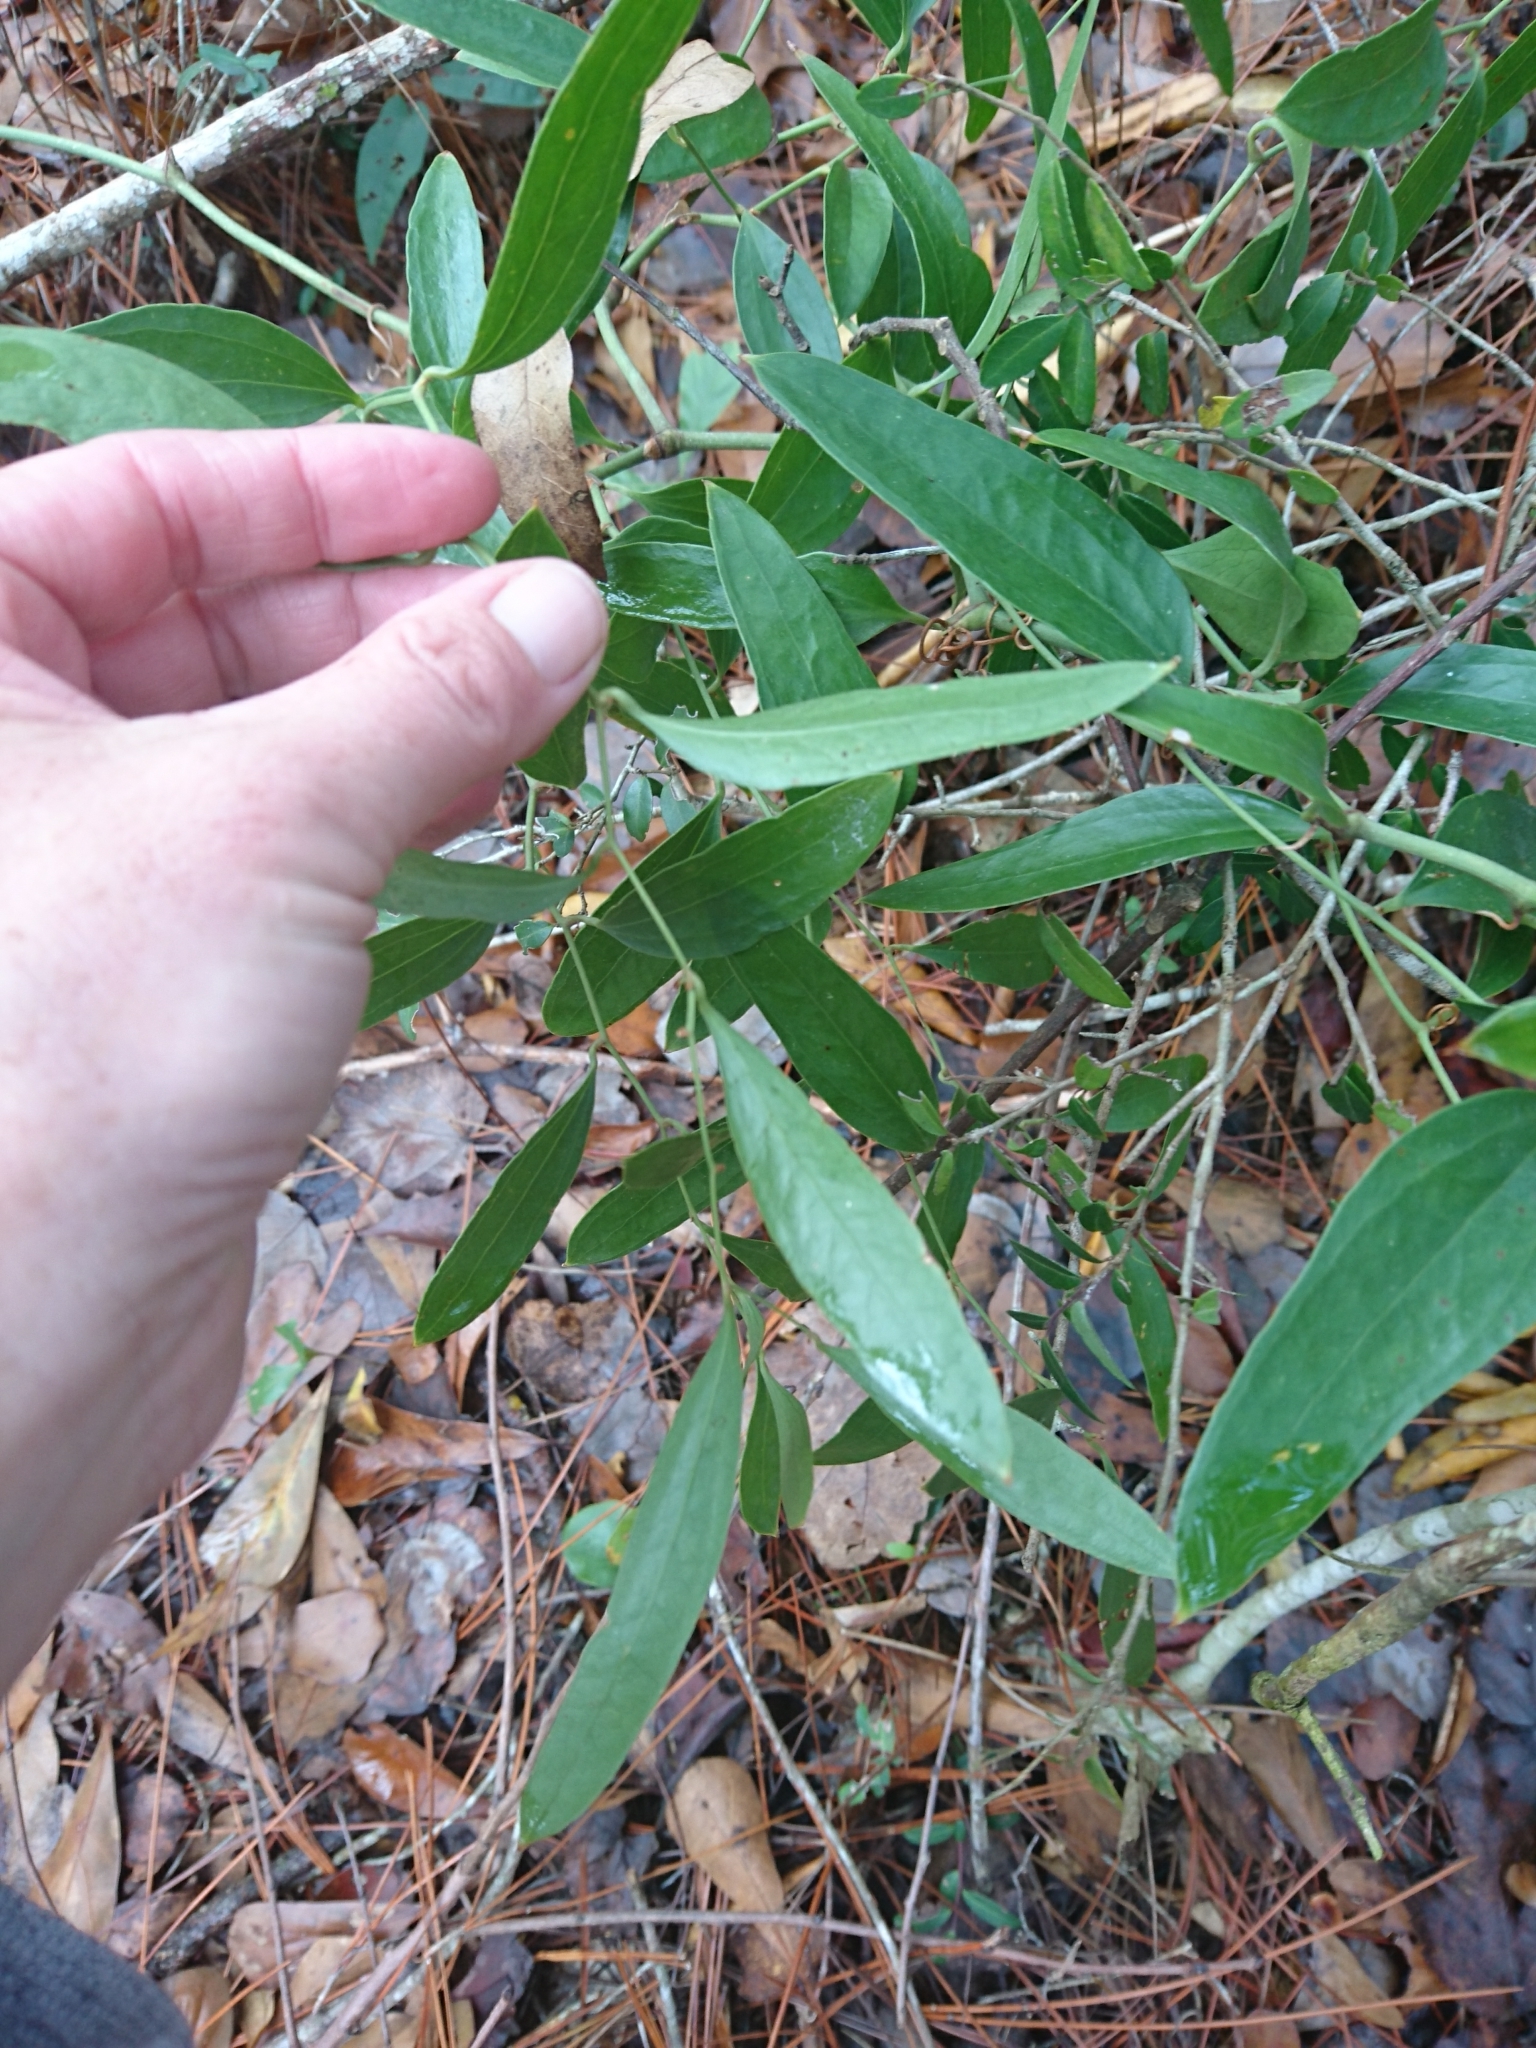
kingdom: Plantae
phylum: Tracheophyta
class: Liliopsida
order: Liliales
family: Smilacaceae
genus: Smilax
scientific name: Smilax auriculata
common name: Wild bamboo
